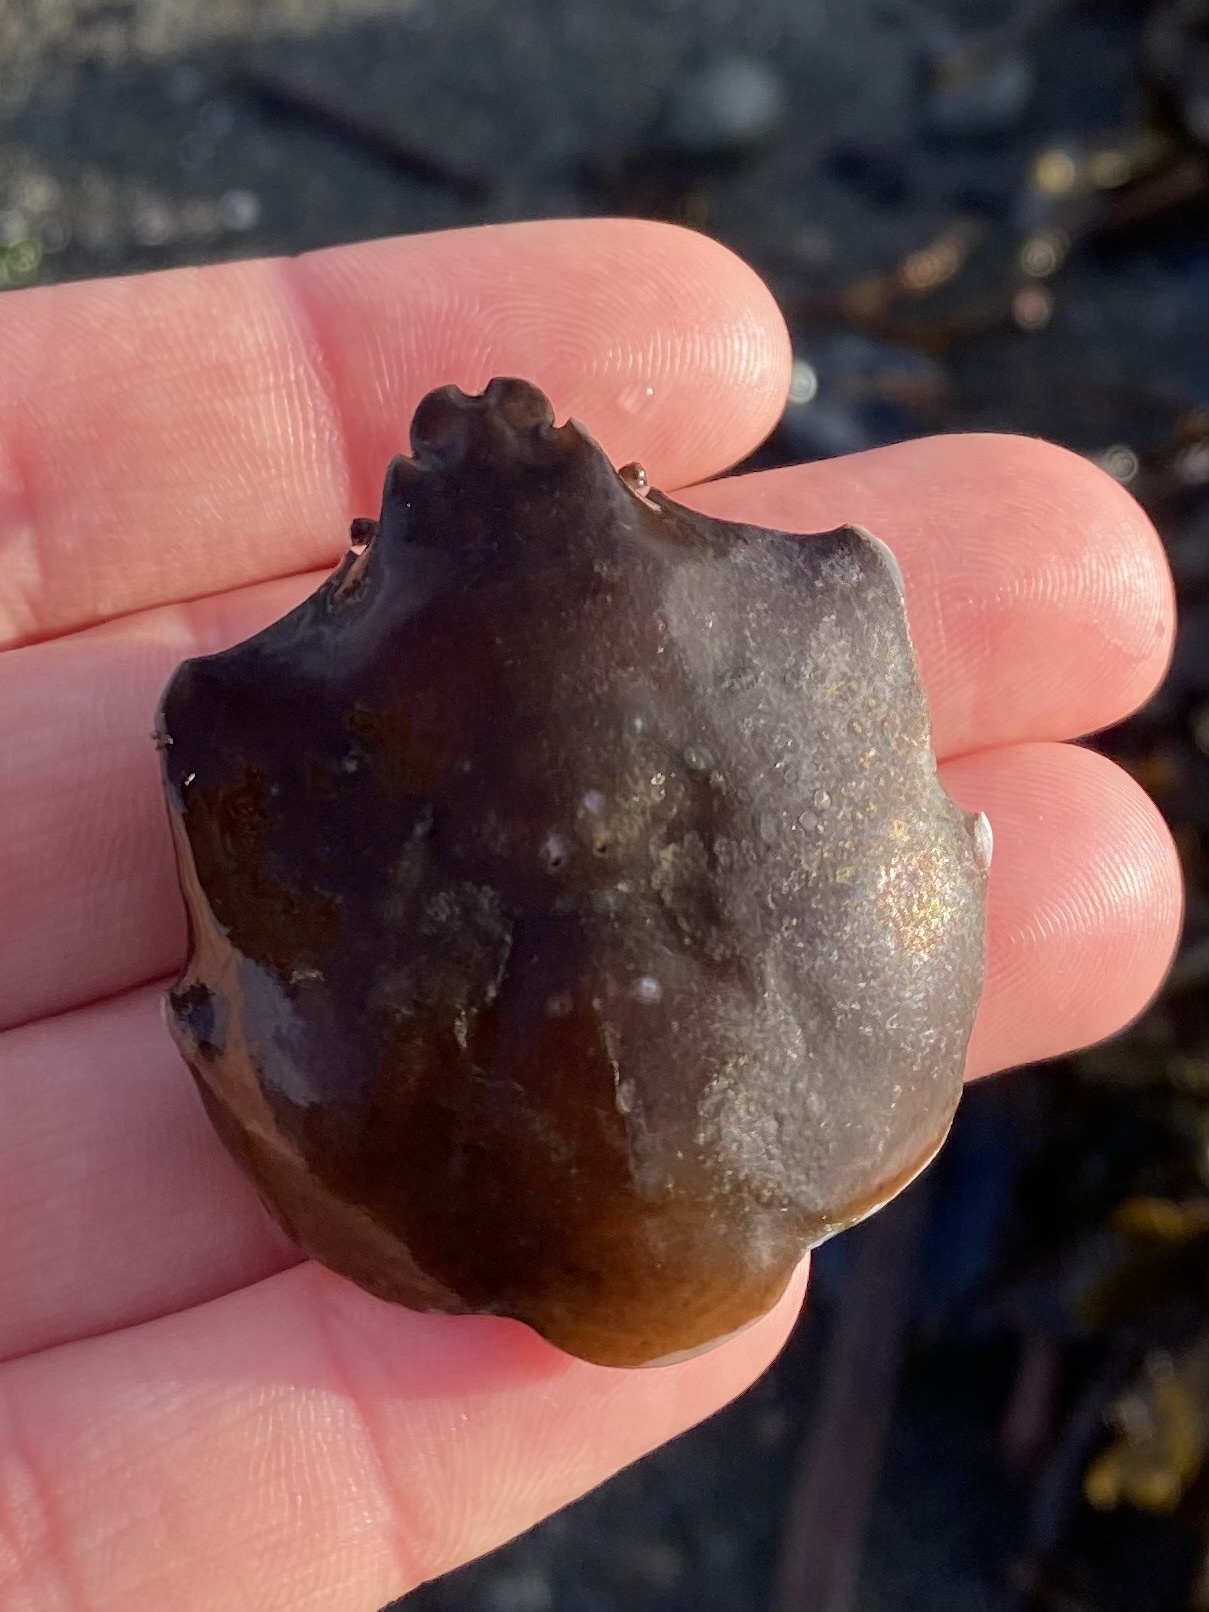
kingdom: Animalia
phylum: Arthropoda
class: Malacostraca
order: Decapoda
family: Epialtidae
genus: Pugettia
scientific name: Pugettia producta
